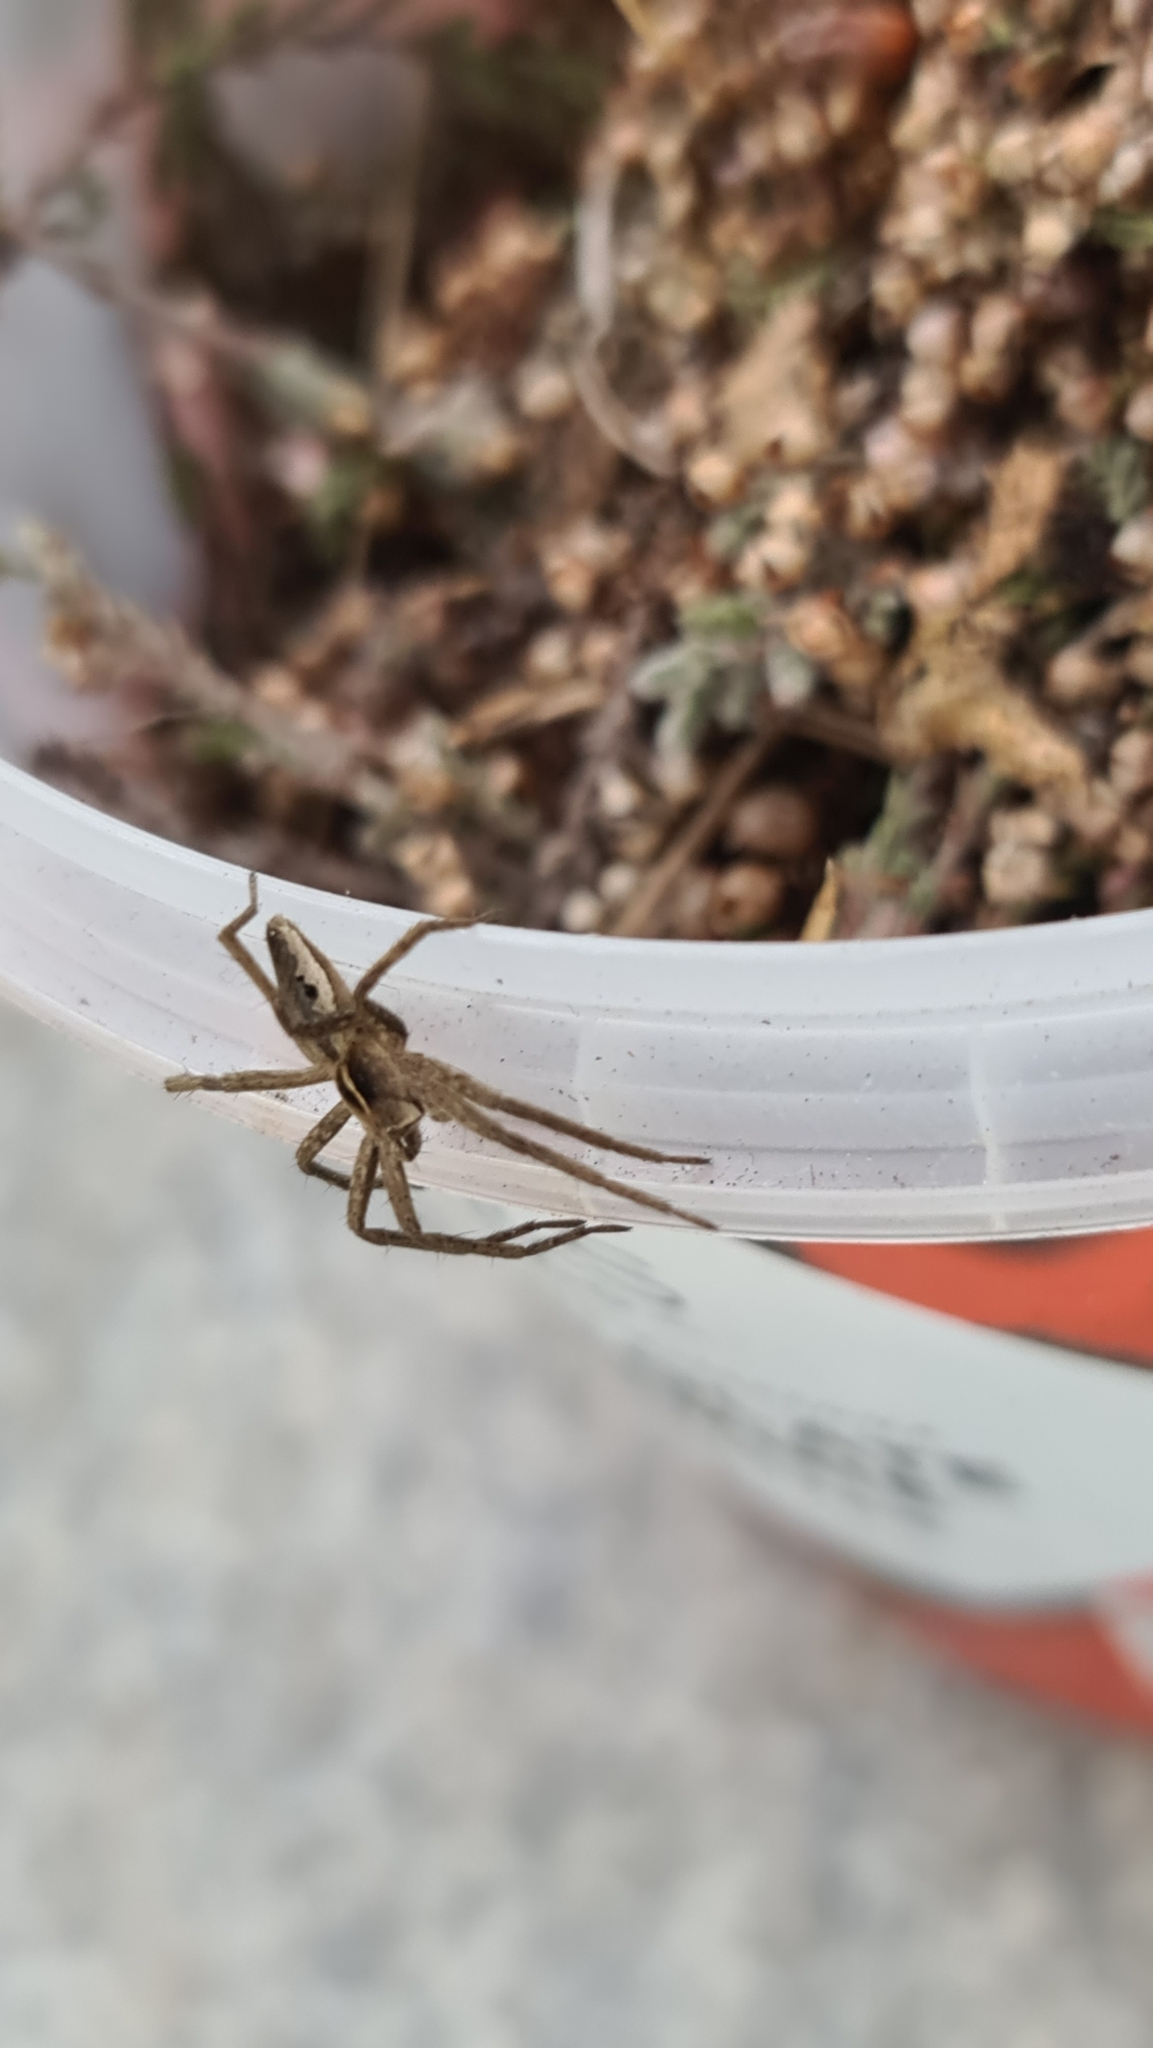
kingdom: Animalia
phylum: Arthropoda
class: Arachnida
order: Araneae
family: Pisauridae
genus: Pisaura
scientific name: Pisaura mirabilis
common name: Tent spider
